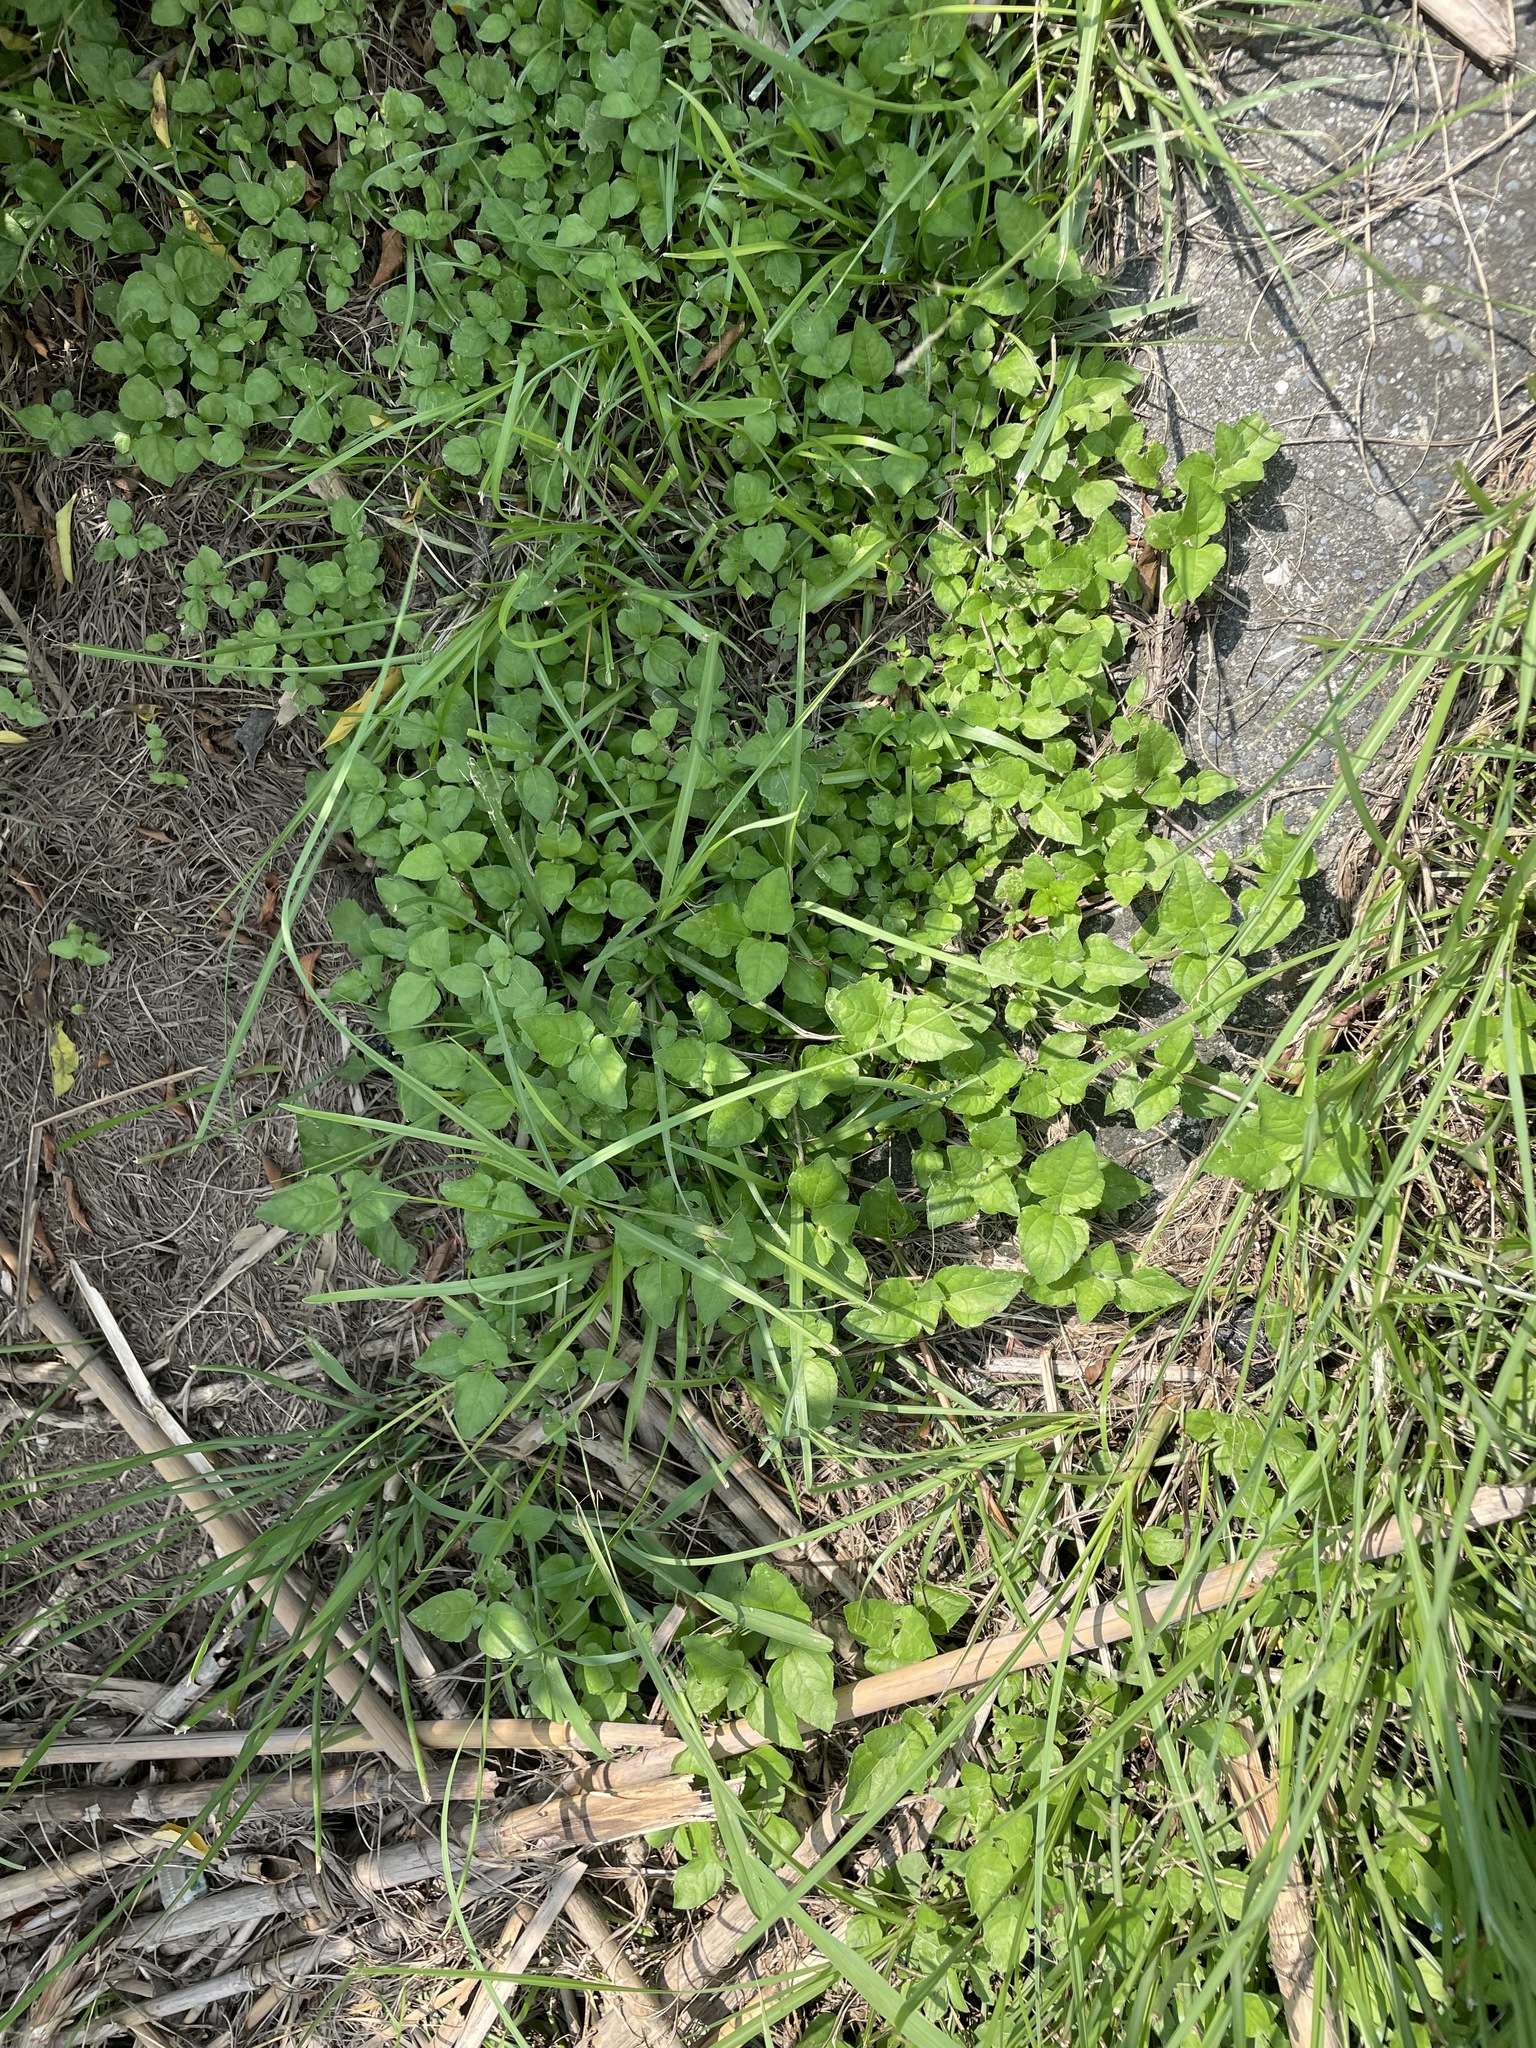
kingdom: Plantae
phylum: Tracheophyta
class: Magnoliopsida
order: Asterales
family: Asteraceae
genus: Calyptocarpus
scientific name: Calyptocarpus vialis
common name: Straggler daisy
